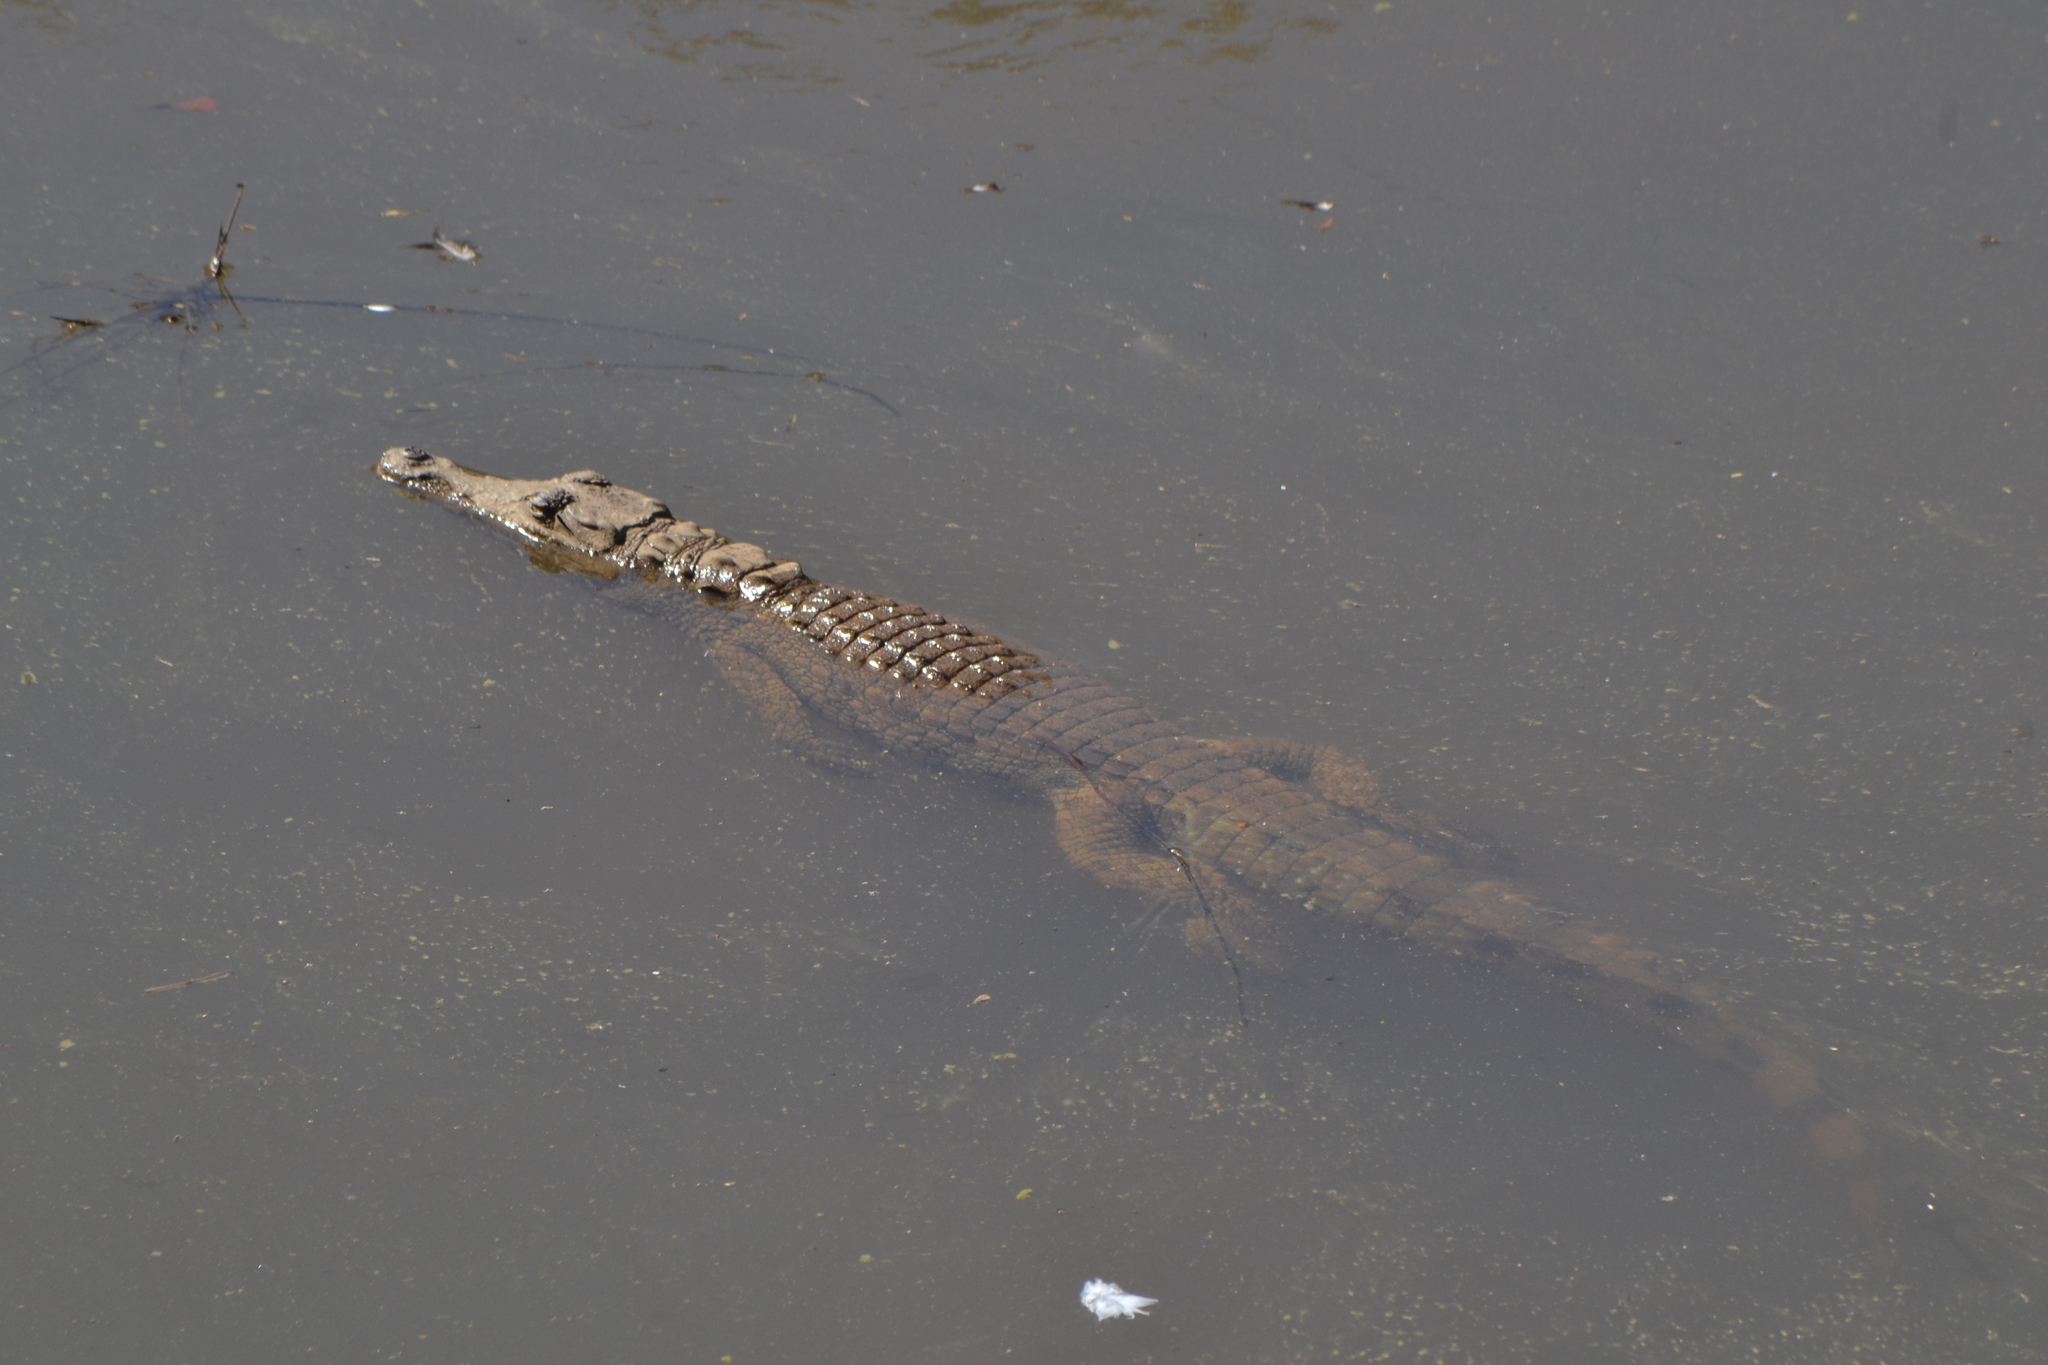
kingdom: Animalia
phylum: Chordata
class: Crocodylia
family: Crocodylidae
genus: Crocodylus
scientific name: Crocodylus niloticus
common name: Nile crocodile
